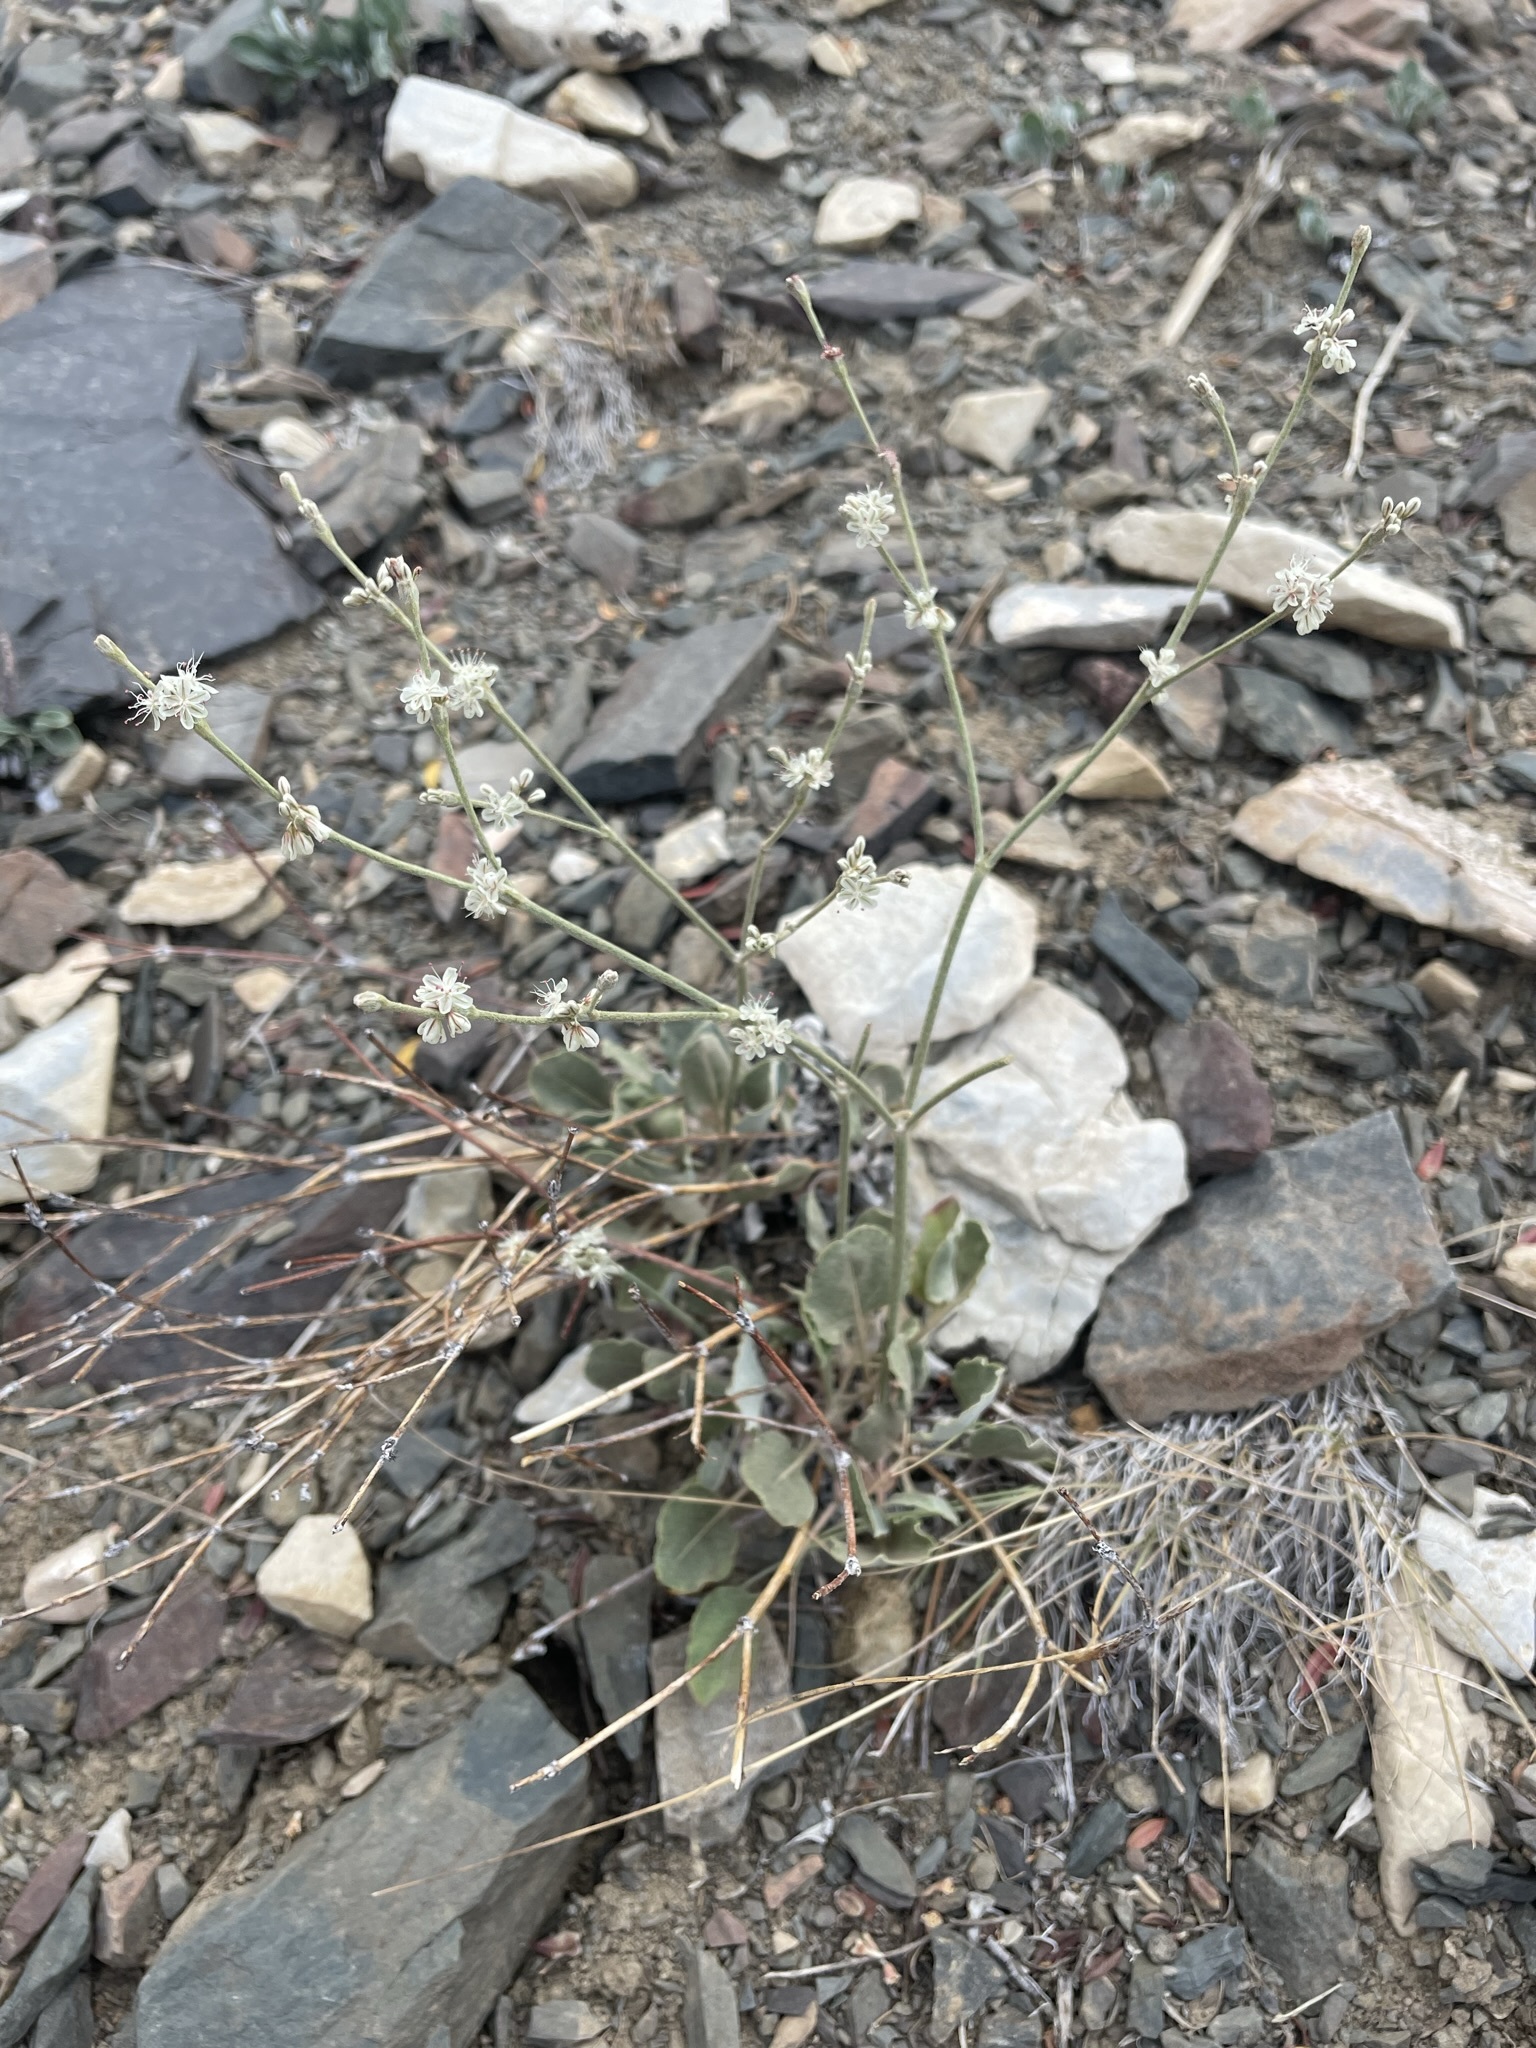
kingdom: Plantae
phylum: Tracheophyta
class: Magnoliopsida
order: Caryophyllales
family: Polygonaceae
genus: Eriogonum
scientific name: Eriogonum rupinum
